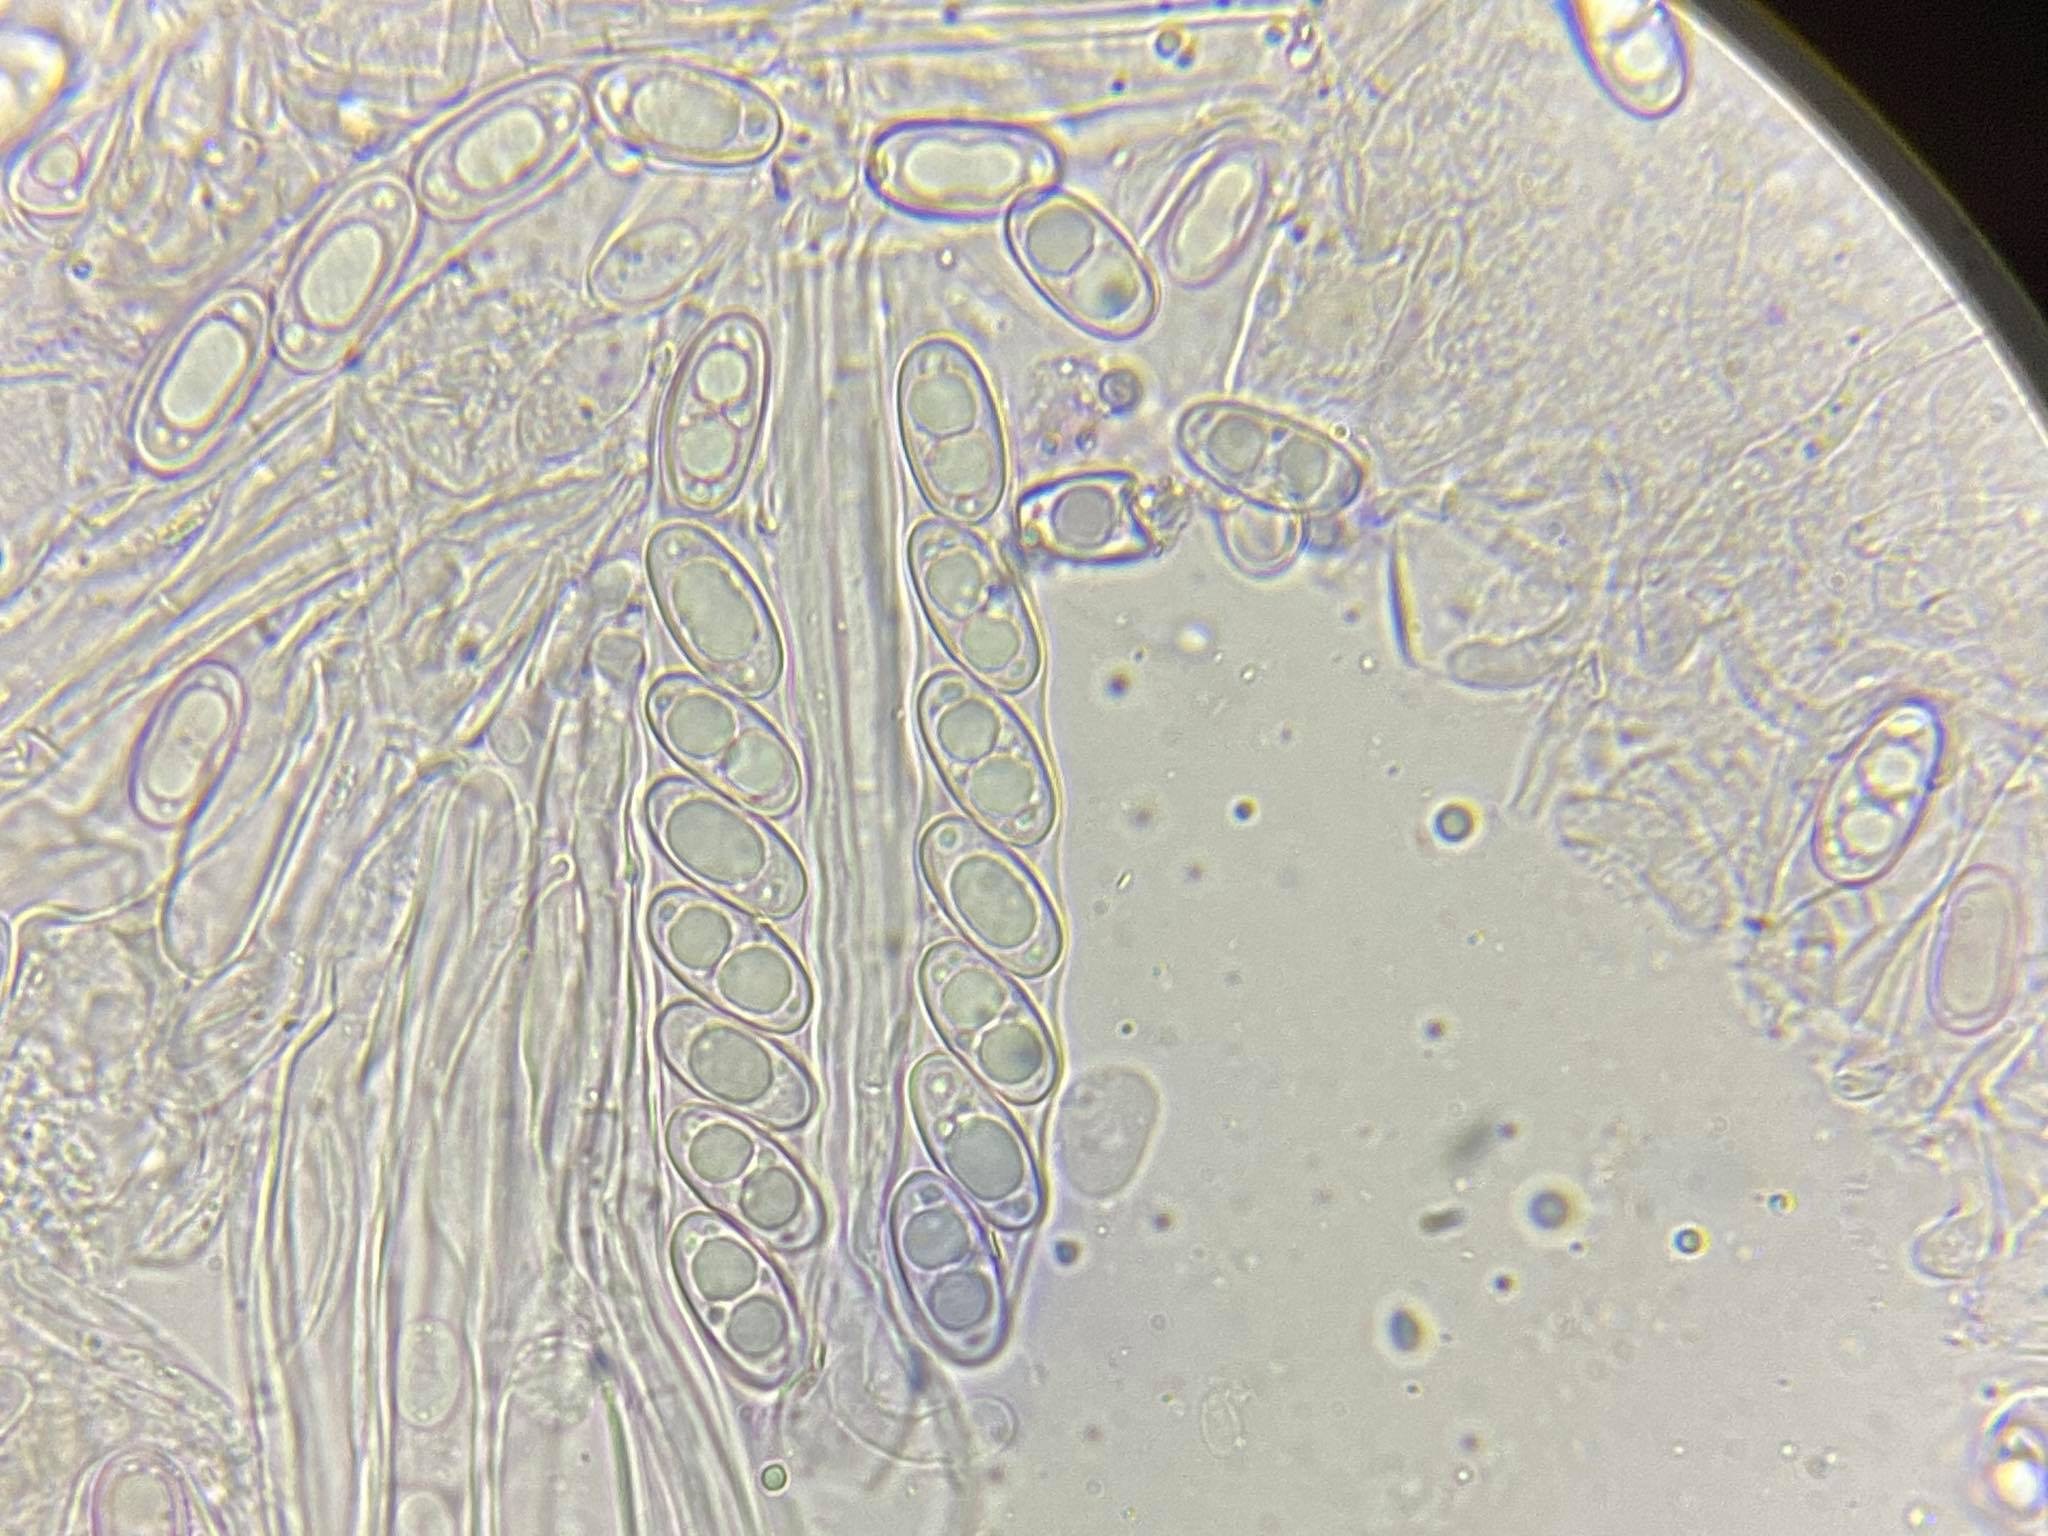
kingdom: Fungi
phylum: Ascomycota
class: Pezizomycetes
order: Pezizales
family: Otideaceae
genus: Otidea
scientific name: Otidea alutacea
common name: Tan ear
